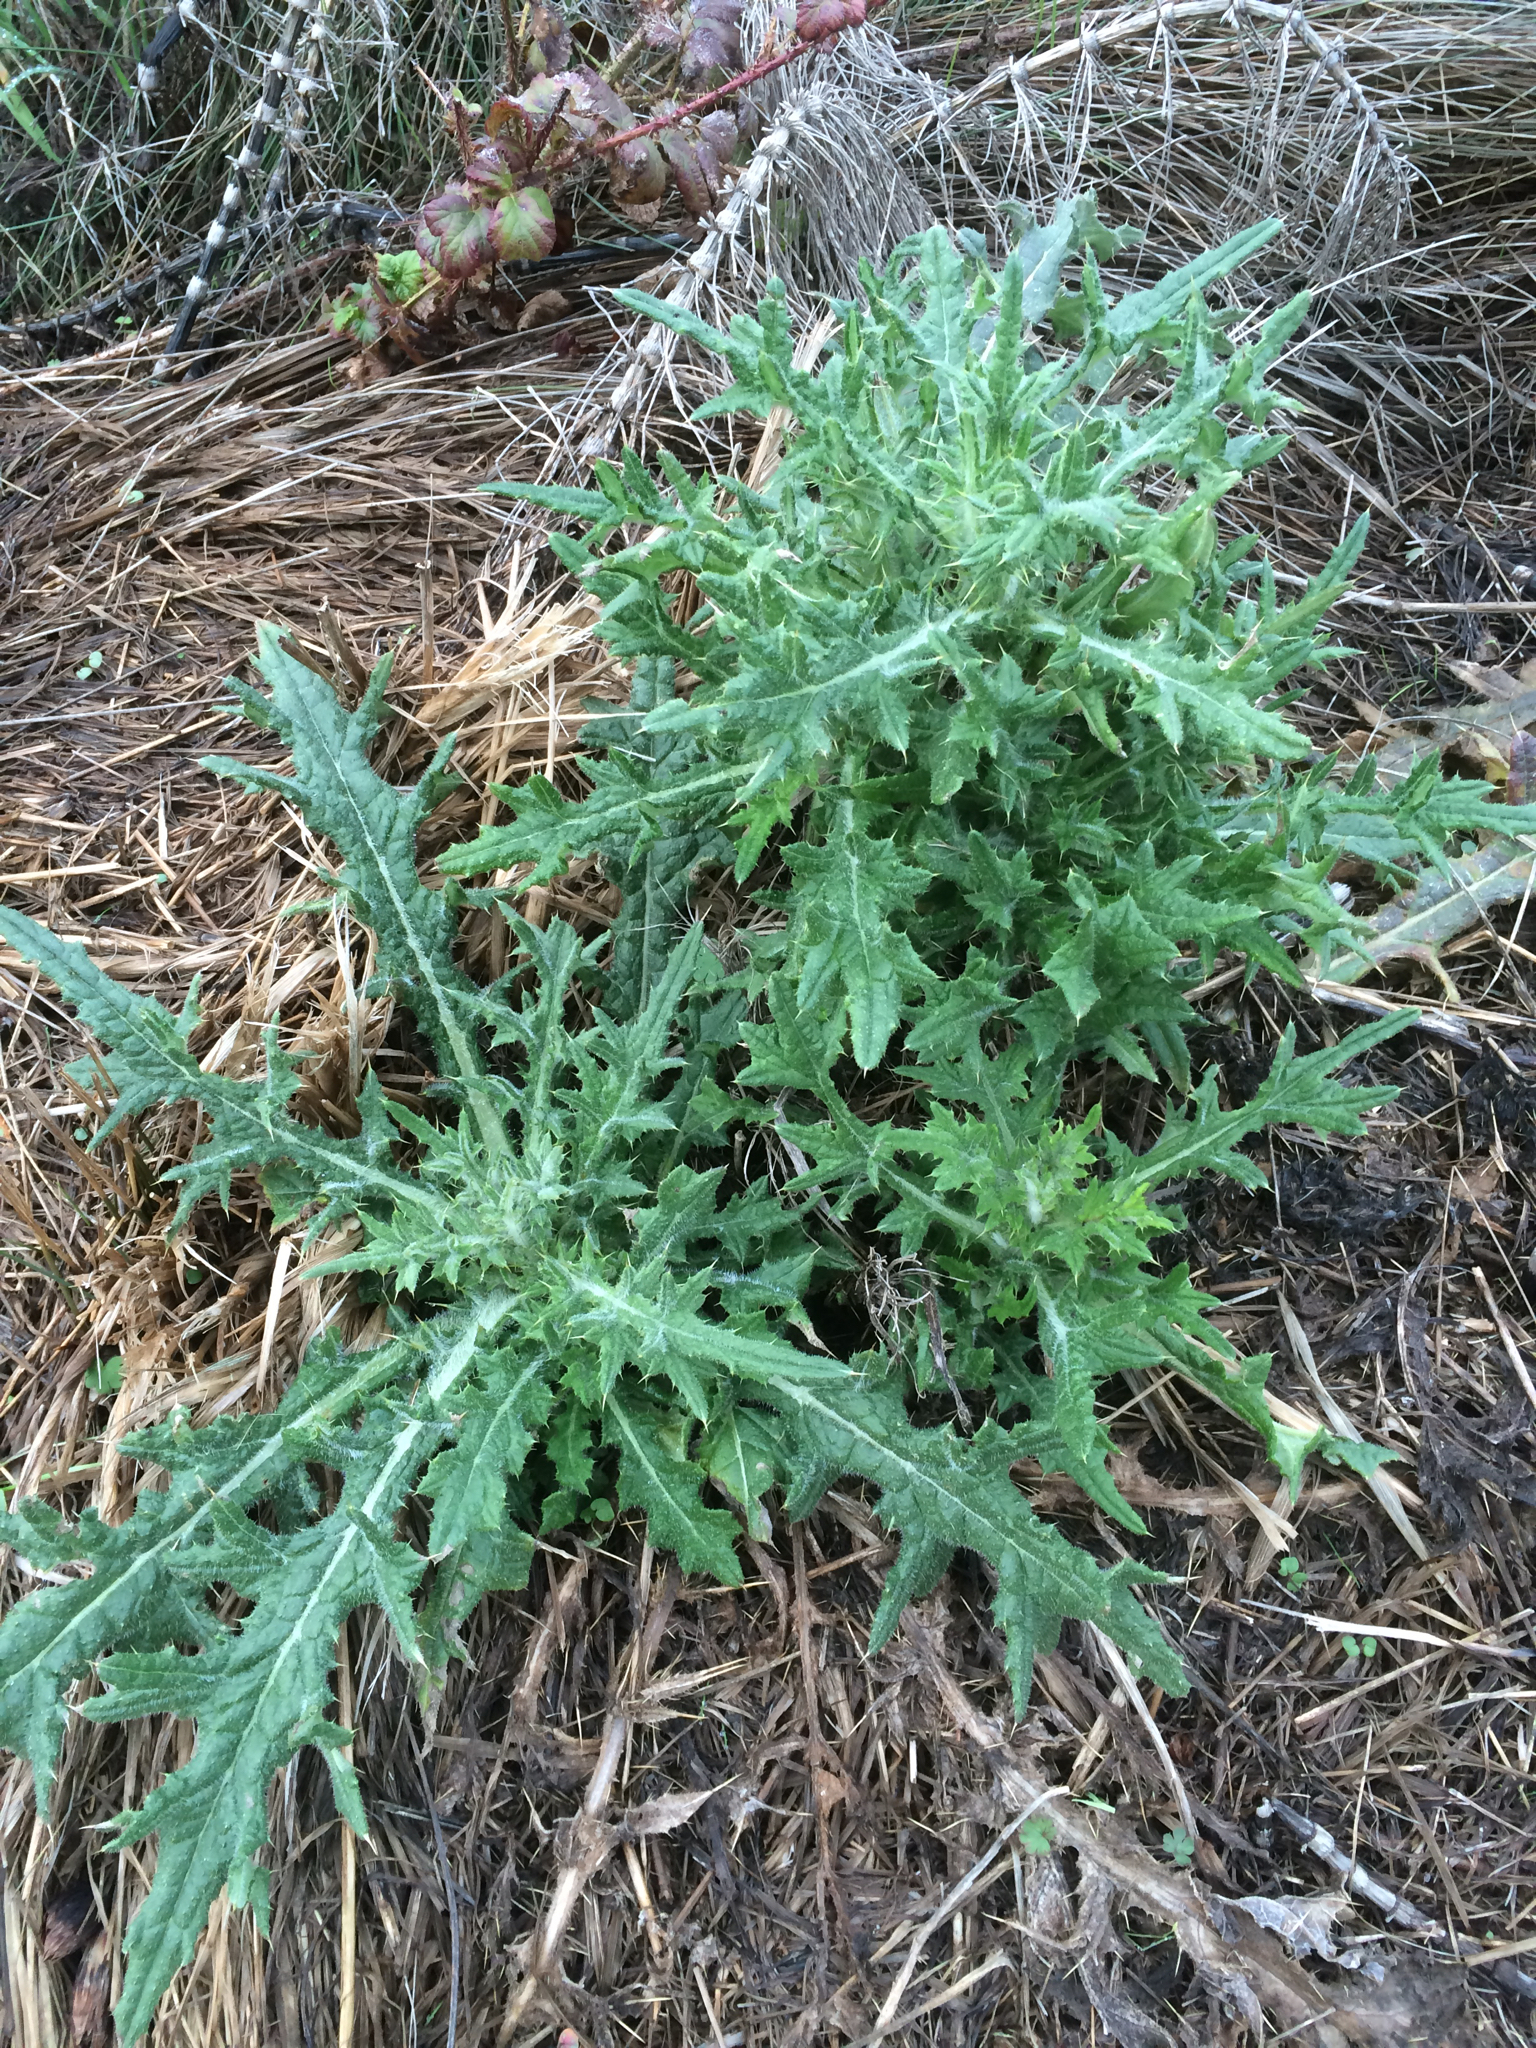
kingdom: Plantae
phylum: Tracheophyta
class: Magnoliopsida
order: Asterales
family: Asteraceae
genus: Cirsium
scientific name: Cirsium vulgare
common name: Bull thistle
